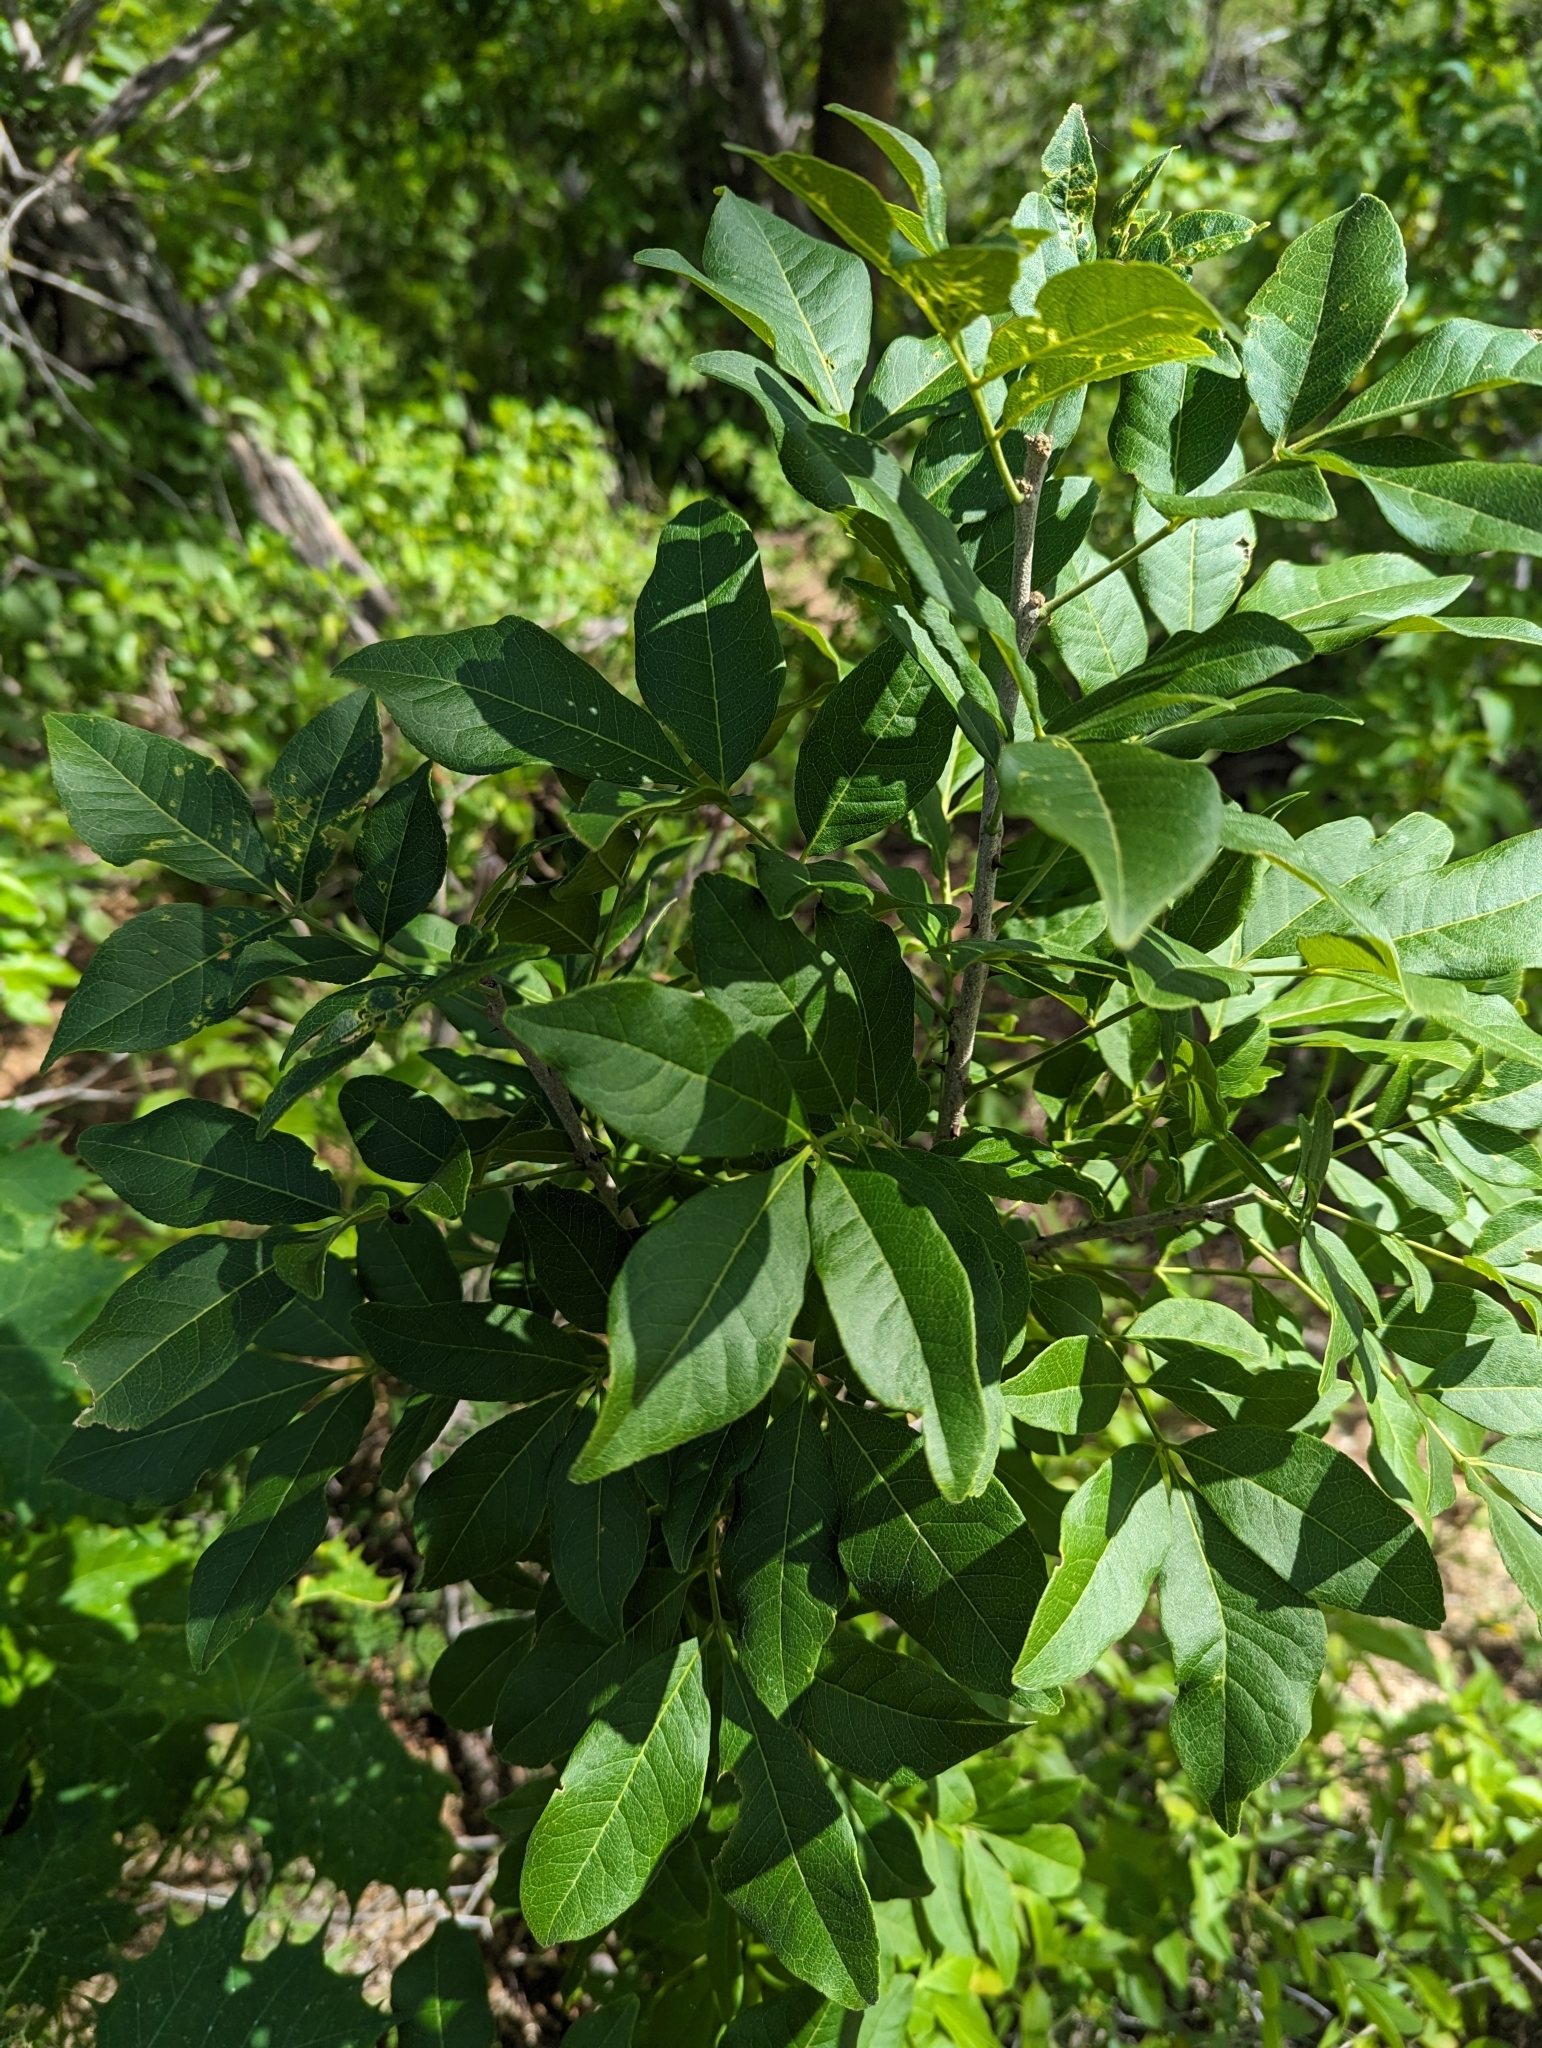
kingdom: Plantae
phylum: Tracheophyta
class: Magnoliopsida
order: Sapindales
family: Rutaceae
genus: Zanthoxylum
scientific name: Zanthoxylum arborescens
